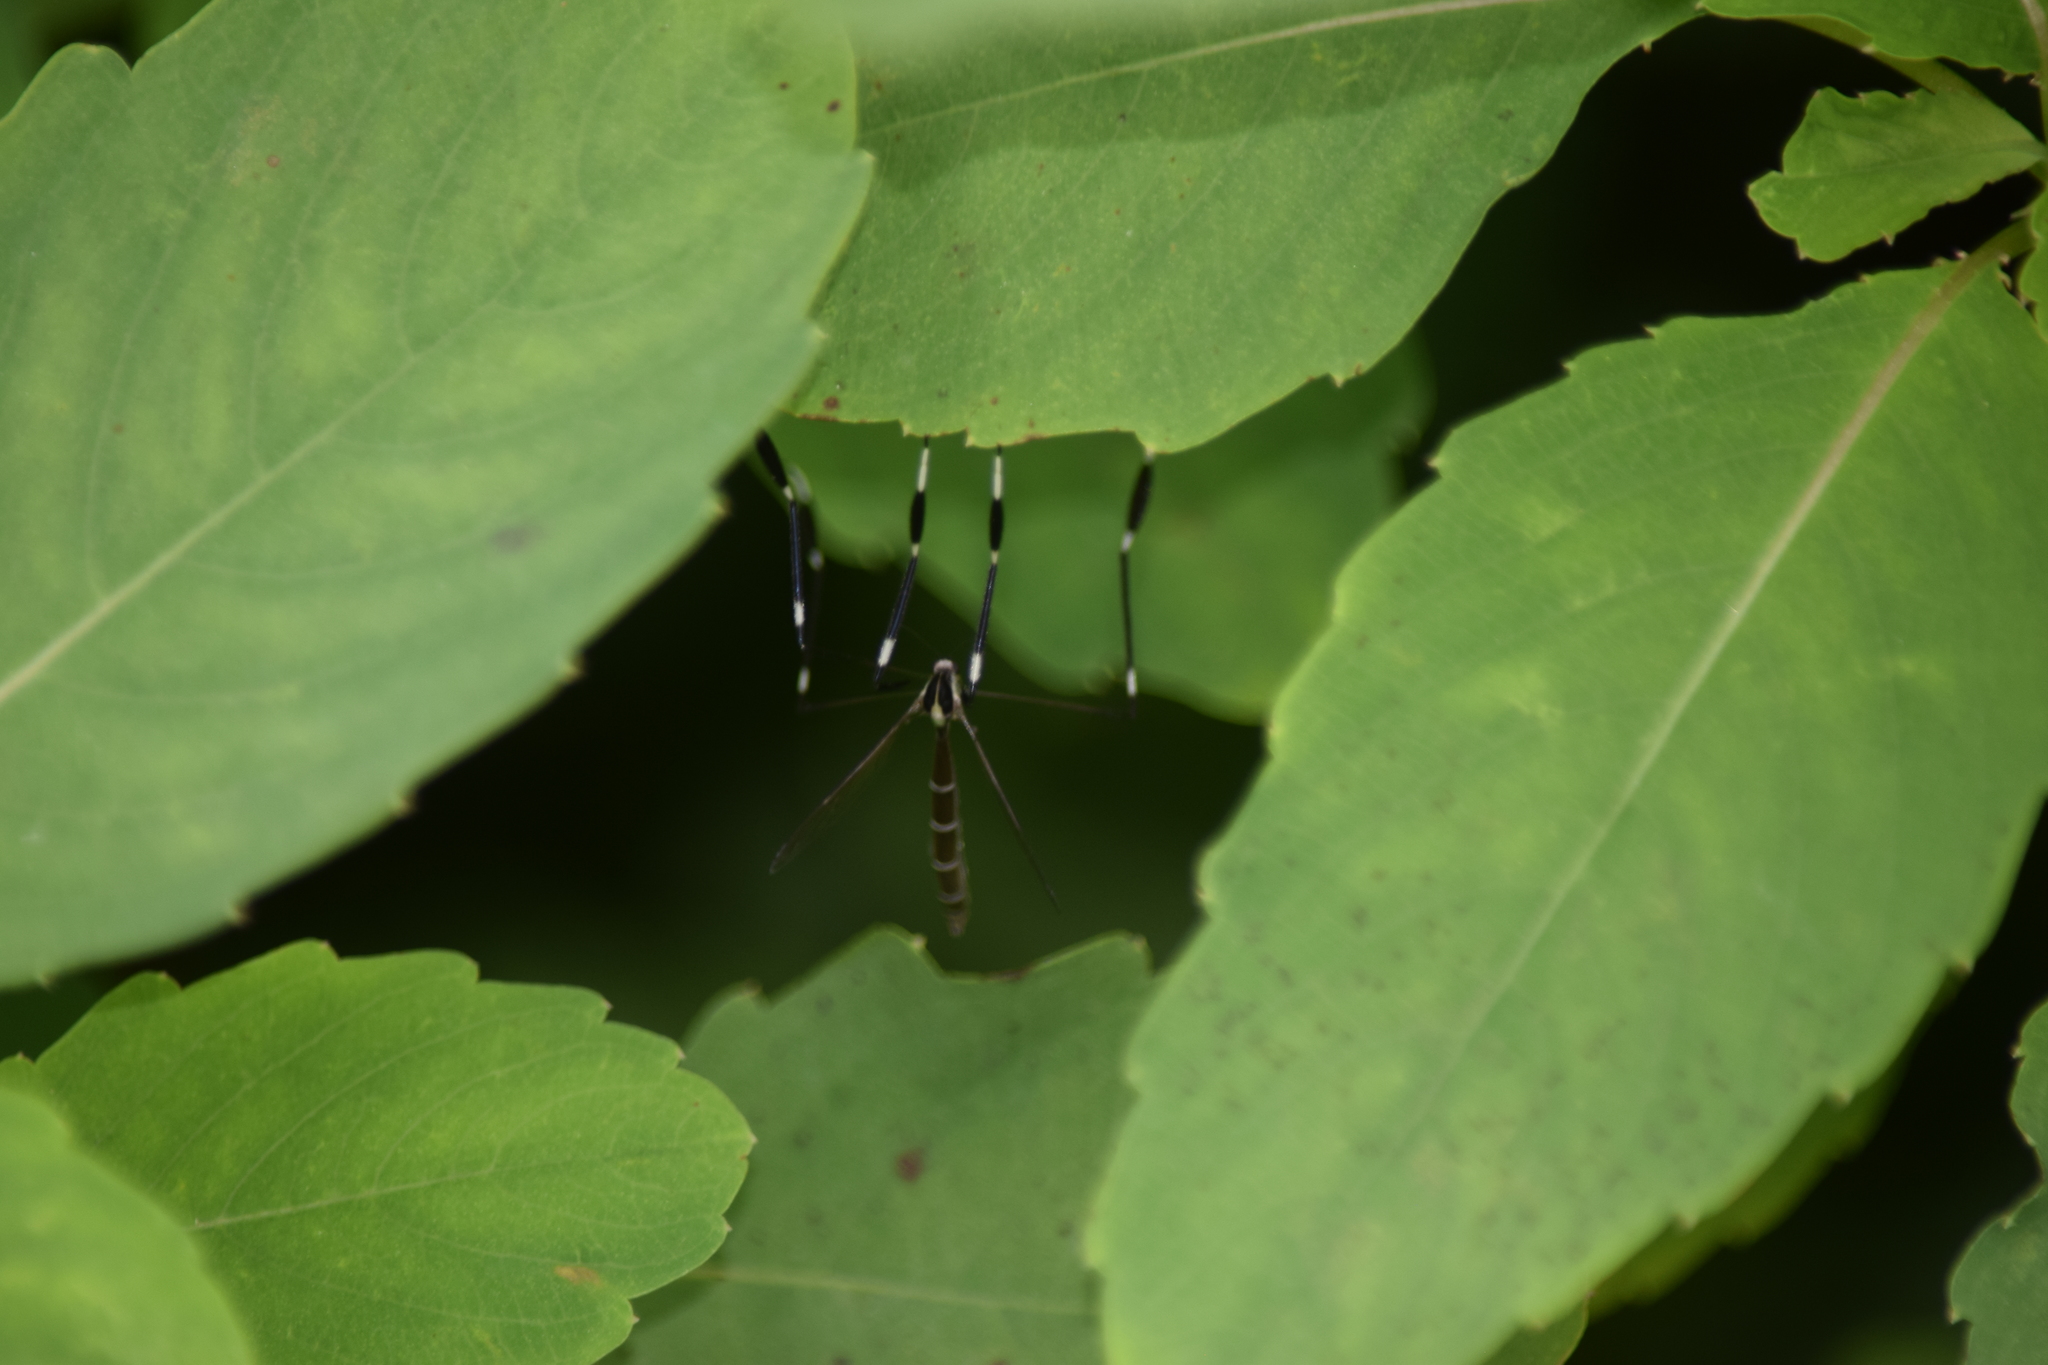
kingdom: Animalia
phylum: Arthropoda
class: Insecta
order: Diptera
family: Ptychopteridae
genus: Bittacomorpha
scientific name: Bittacomorpha clavipes
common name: Eastern phantom crane fly
